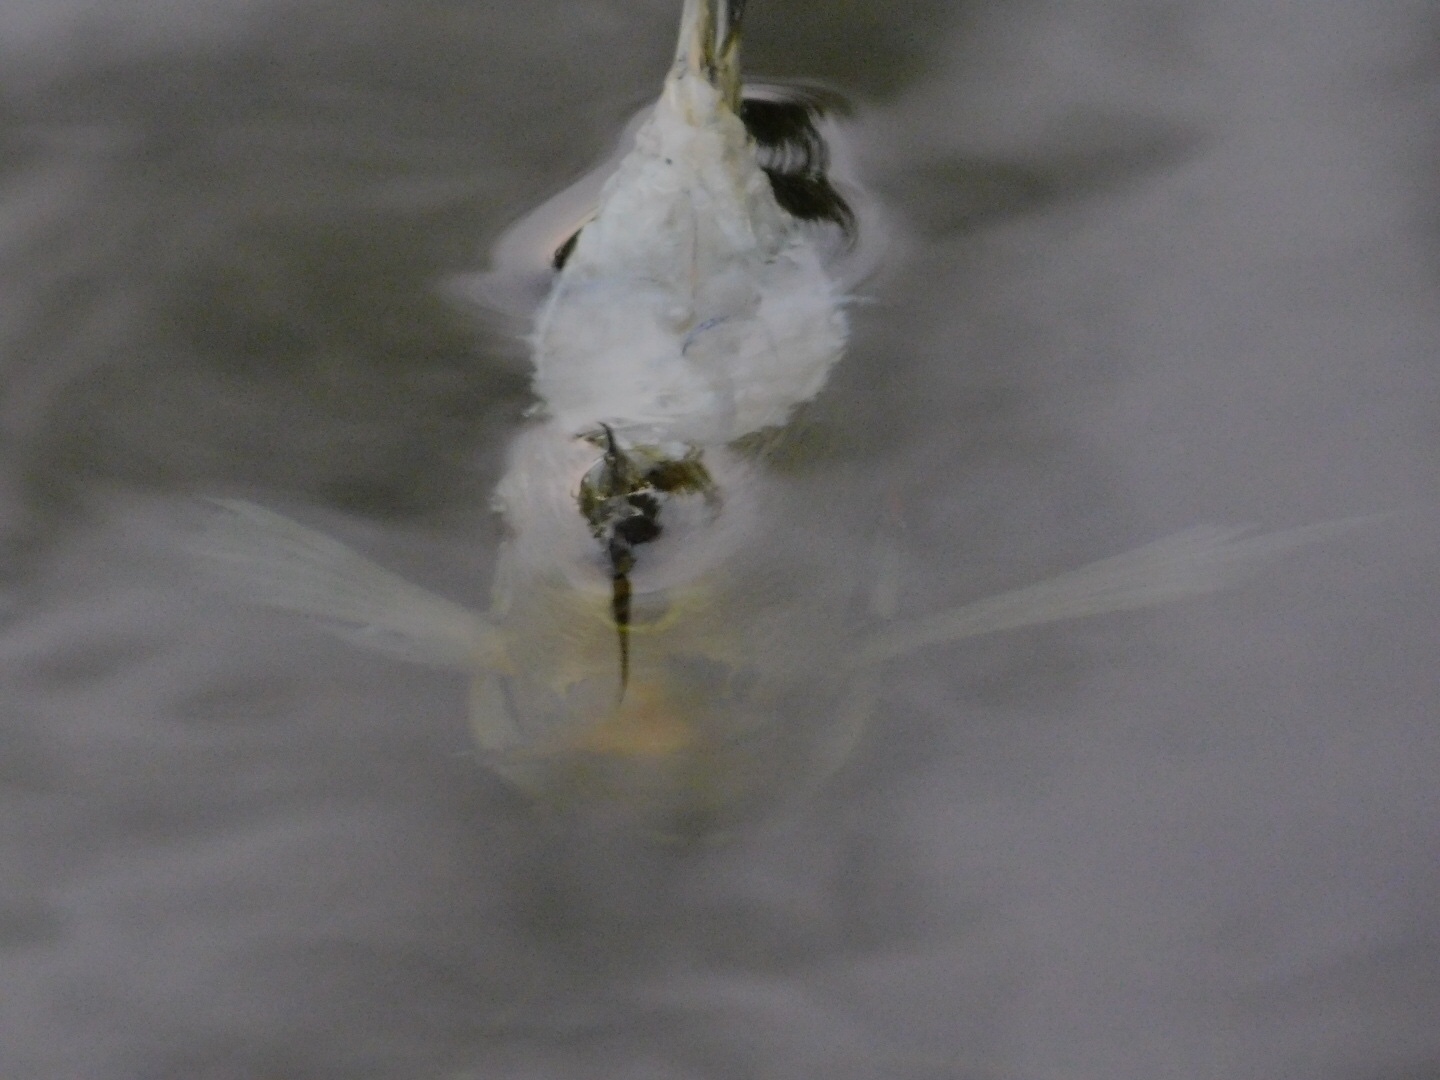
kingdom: Animalia
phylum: Chordata
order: Perciformes
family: Centrarchidae
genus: Lepomis
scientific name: Lepomis microlophus
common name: Redear sunfish
